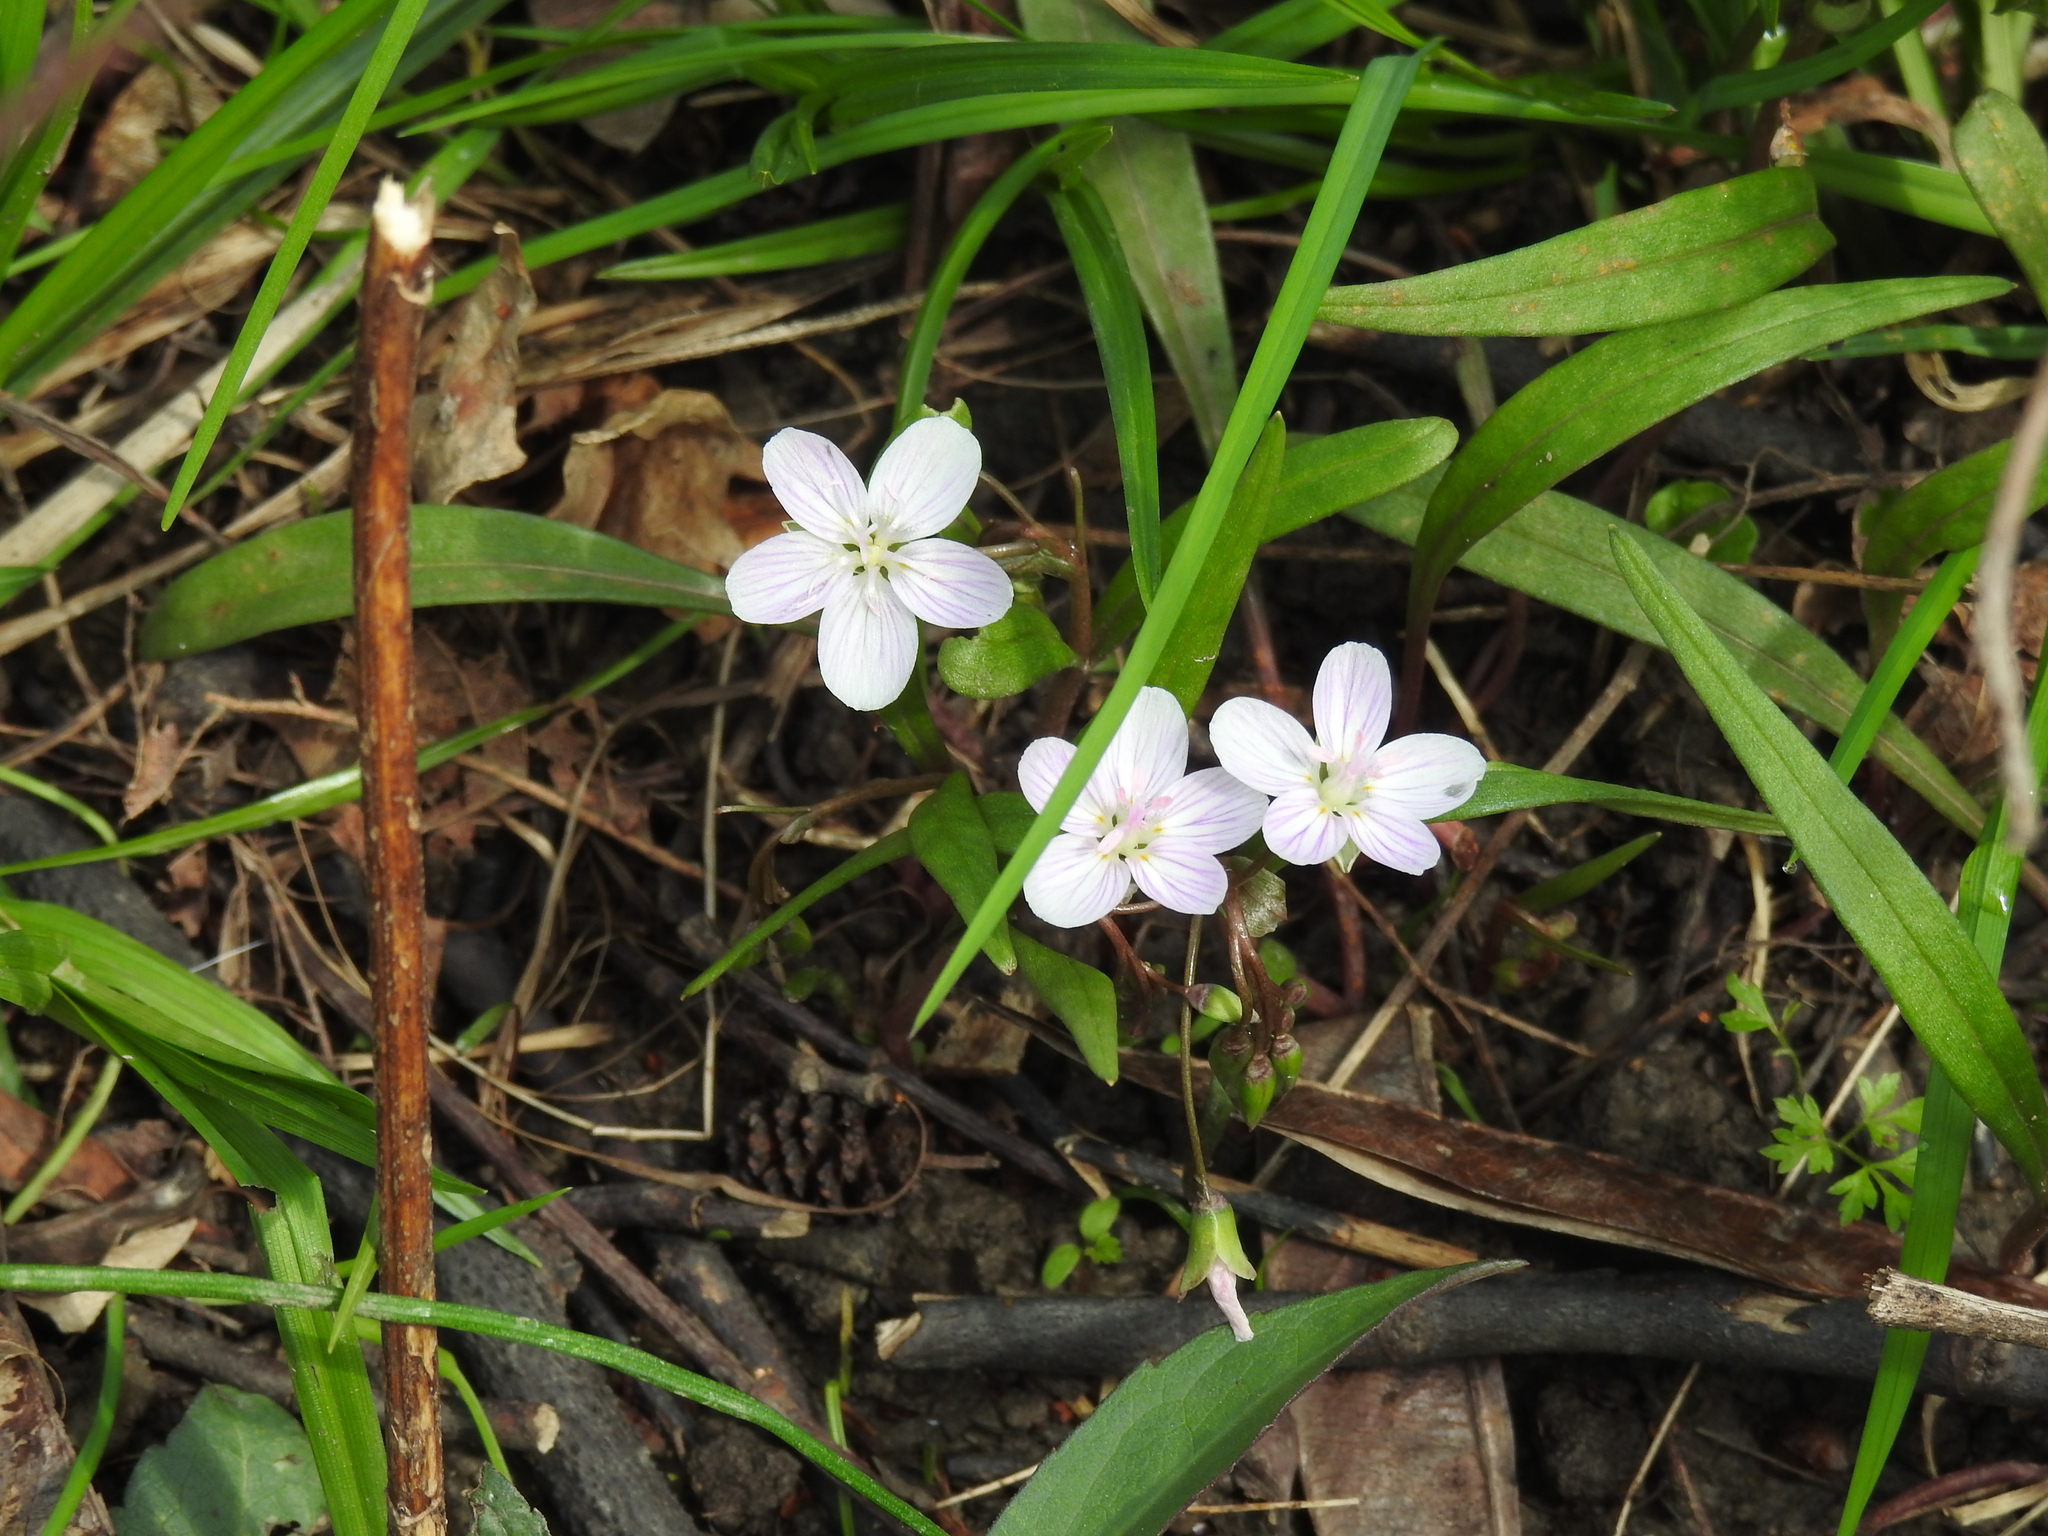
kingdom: Plantae
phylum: Tracheophyta
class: Magnoliopsida
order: Caryophyllales
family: Montiaceae
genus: Claytonia
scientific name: Claytonia virginica
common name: Virginia springbeauty
